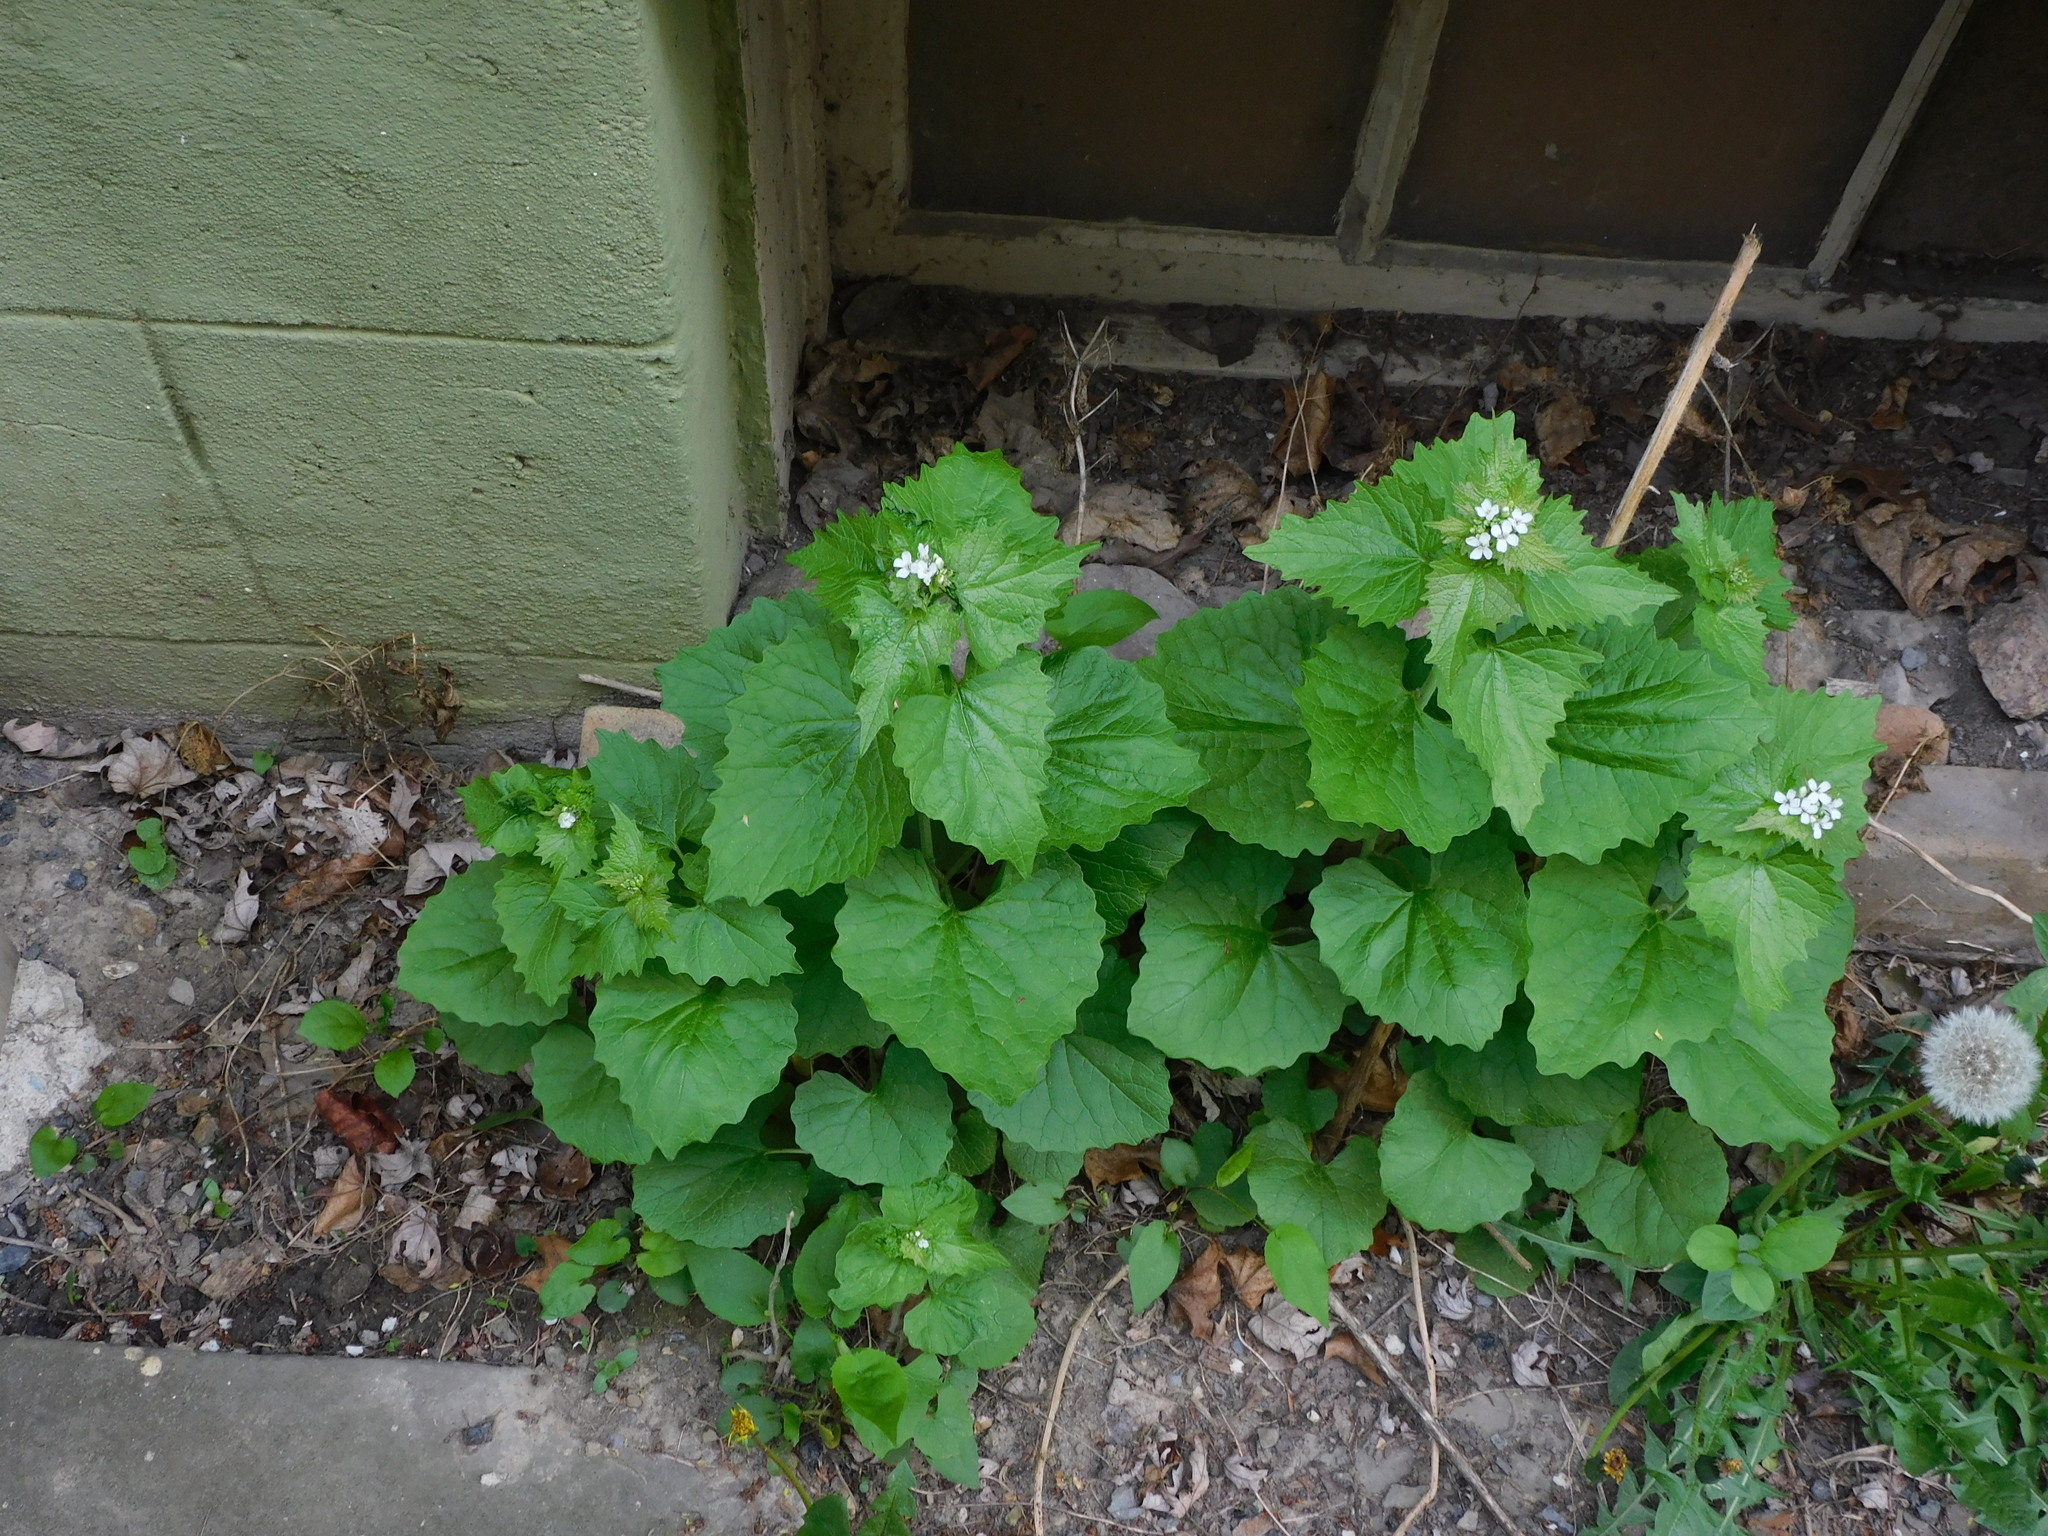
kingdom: Plantae
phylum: Tracheophyta
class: Magnoliopsida
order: Brassicales
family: Brassicaceae
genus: Alliaria
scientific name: Alliaria petiolata
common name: Garlic mustard
